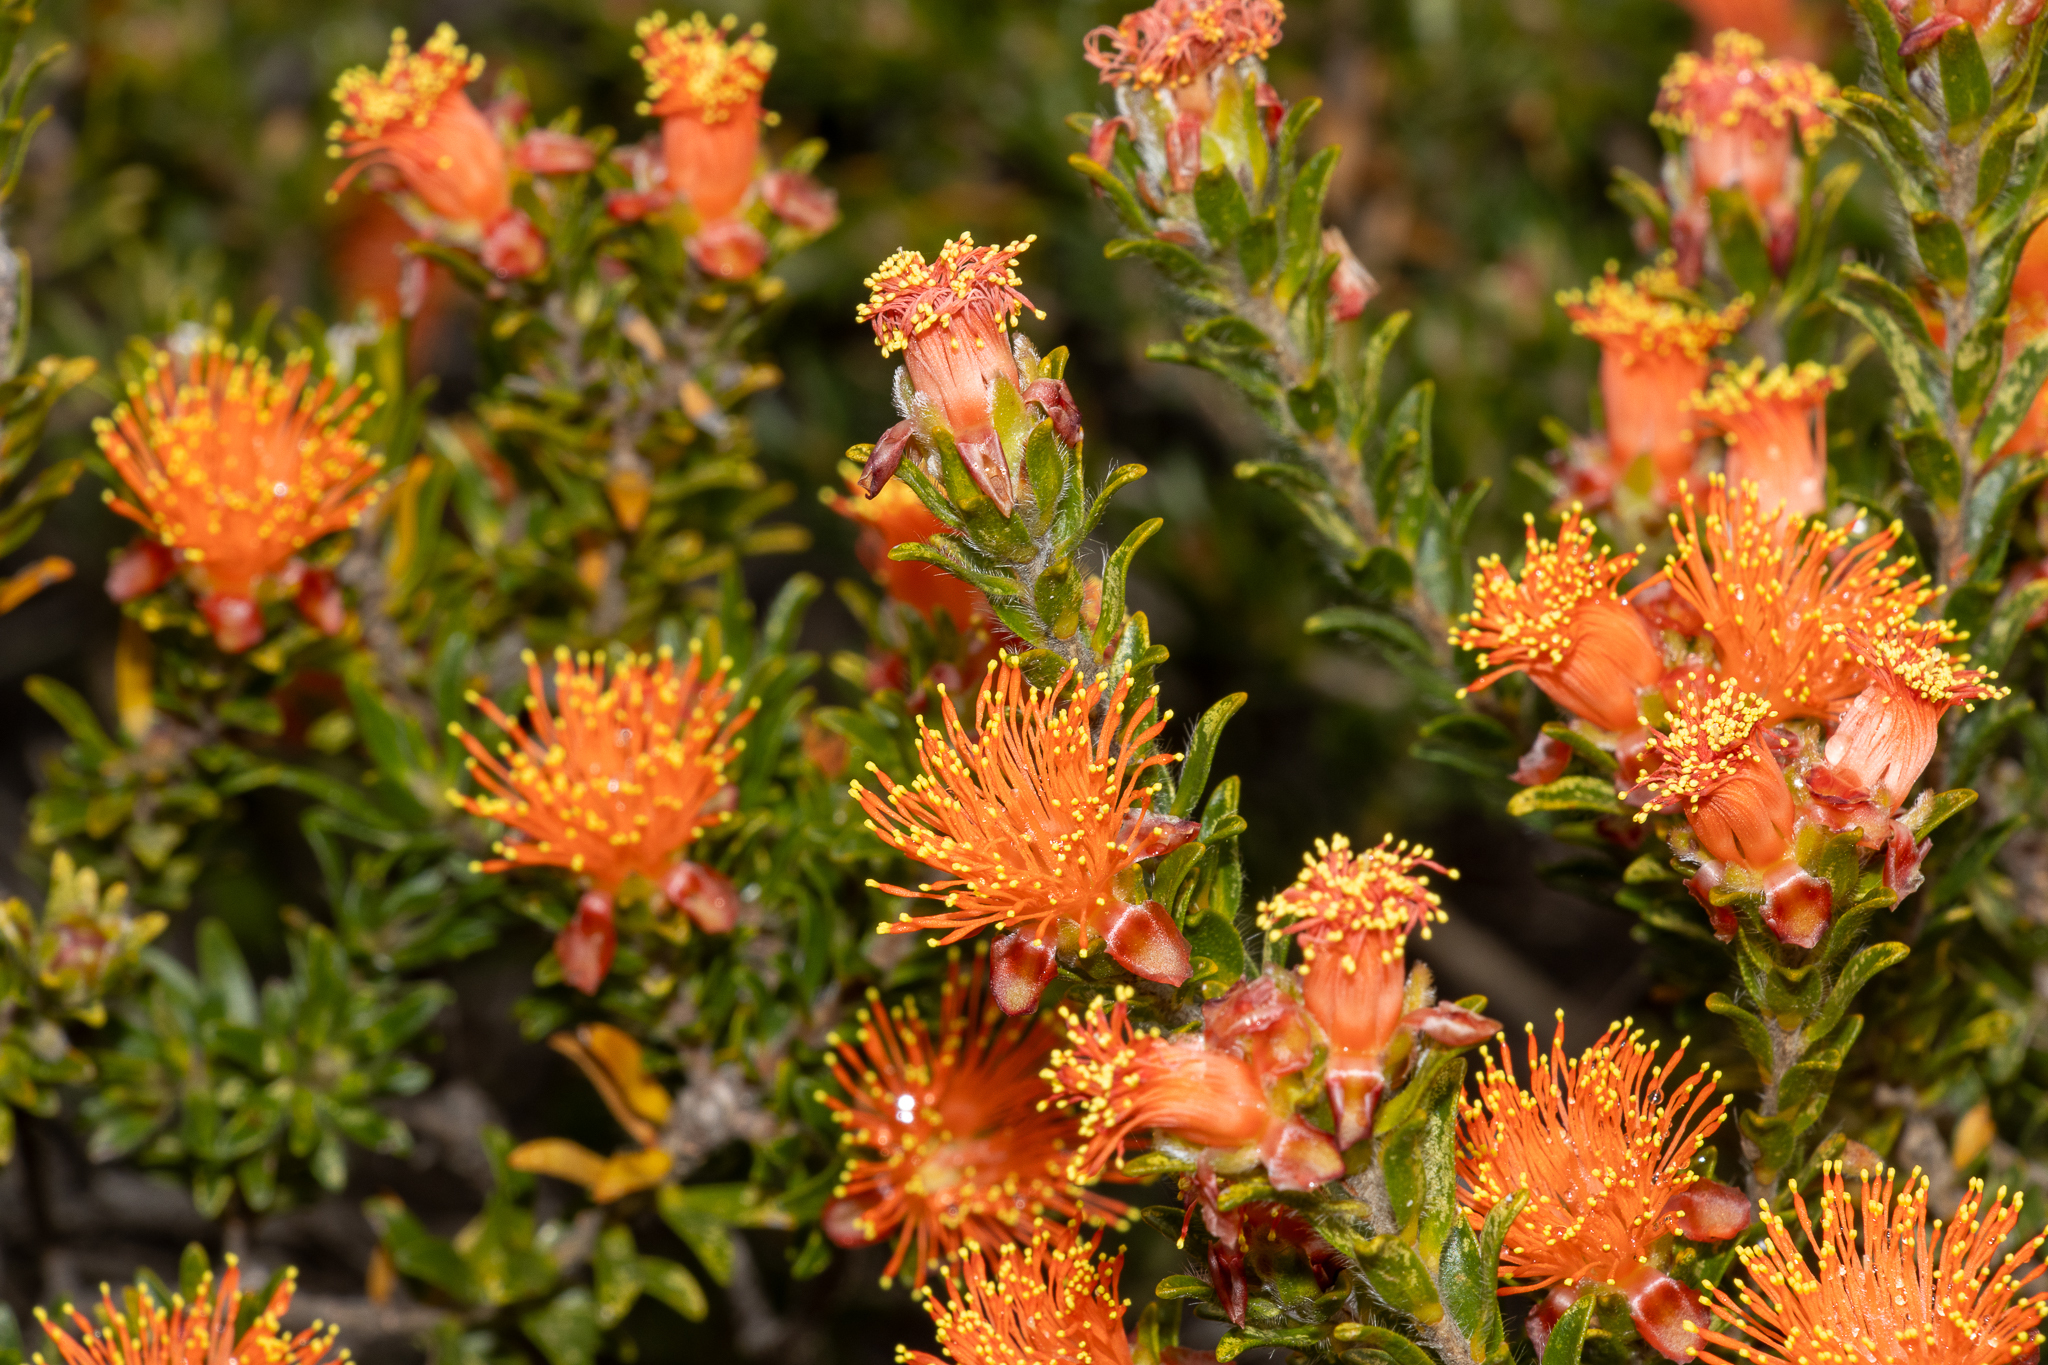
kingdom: Plantae
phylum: Tracheophyta
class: Magnoliopsida
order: Myrtales
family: Myrtaceae
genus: Melaleuca
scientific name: Melaleuca beaufortioides
